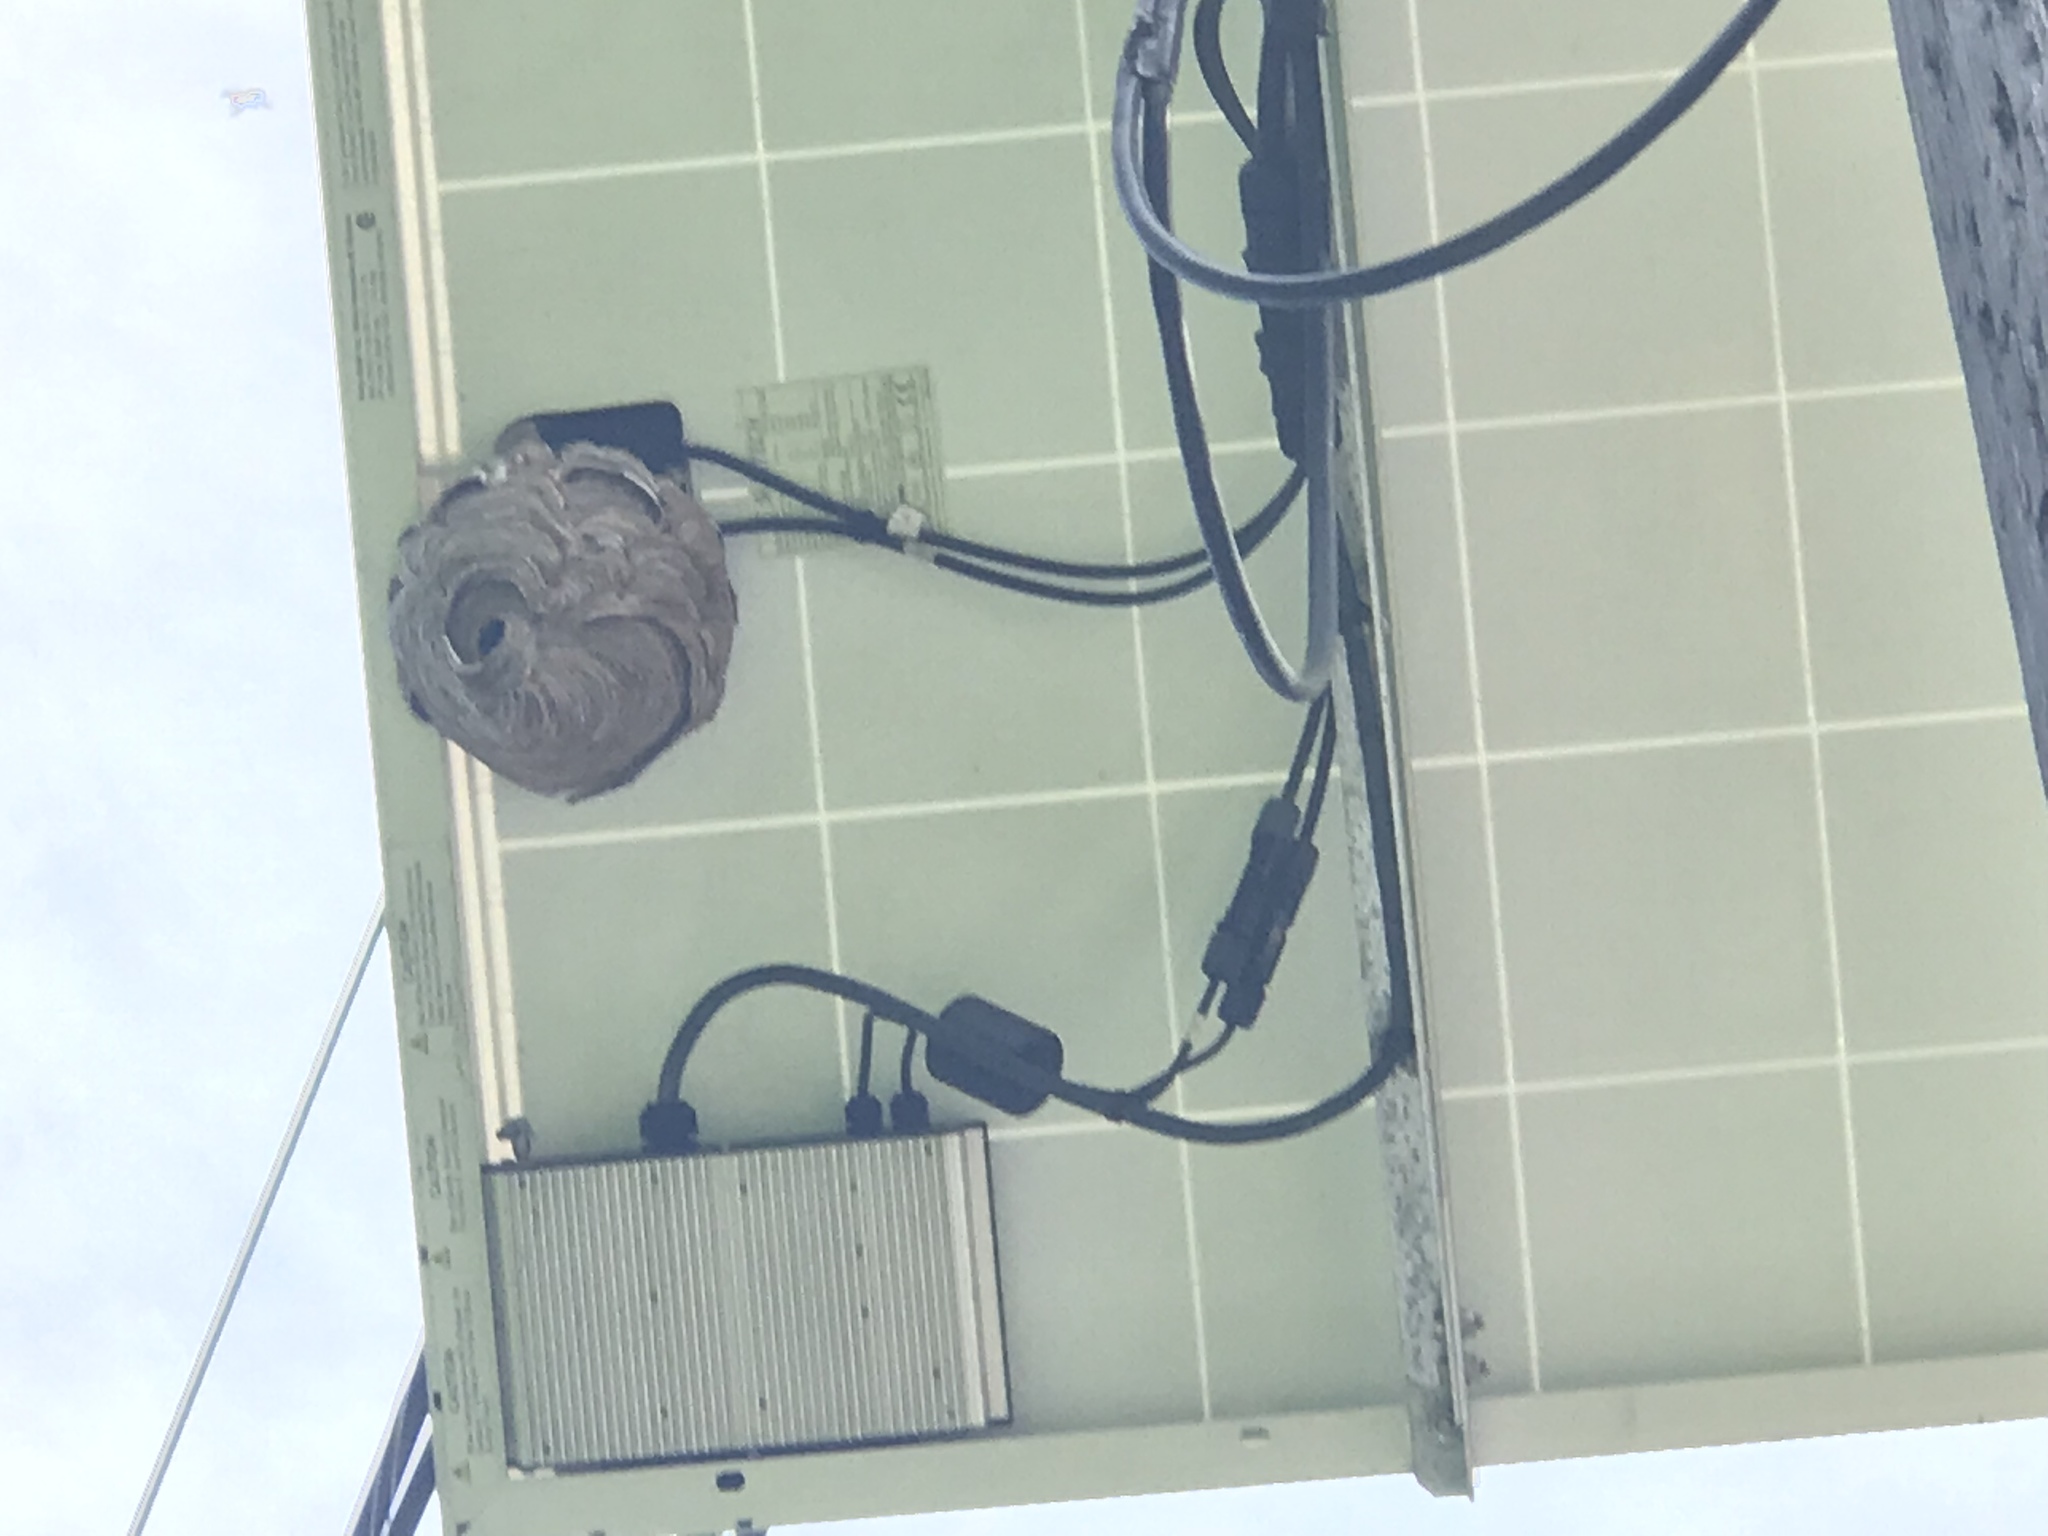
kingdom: Animalia
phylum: Arthropoda
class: Insecta
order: Hymenoptera
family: Vespidae
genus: Dolichovespula
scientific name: Dolichovespula maculata
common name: Bald-faced hornet
